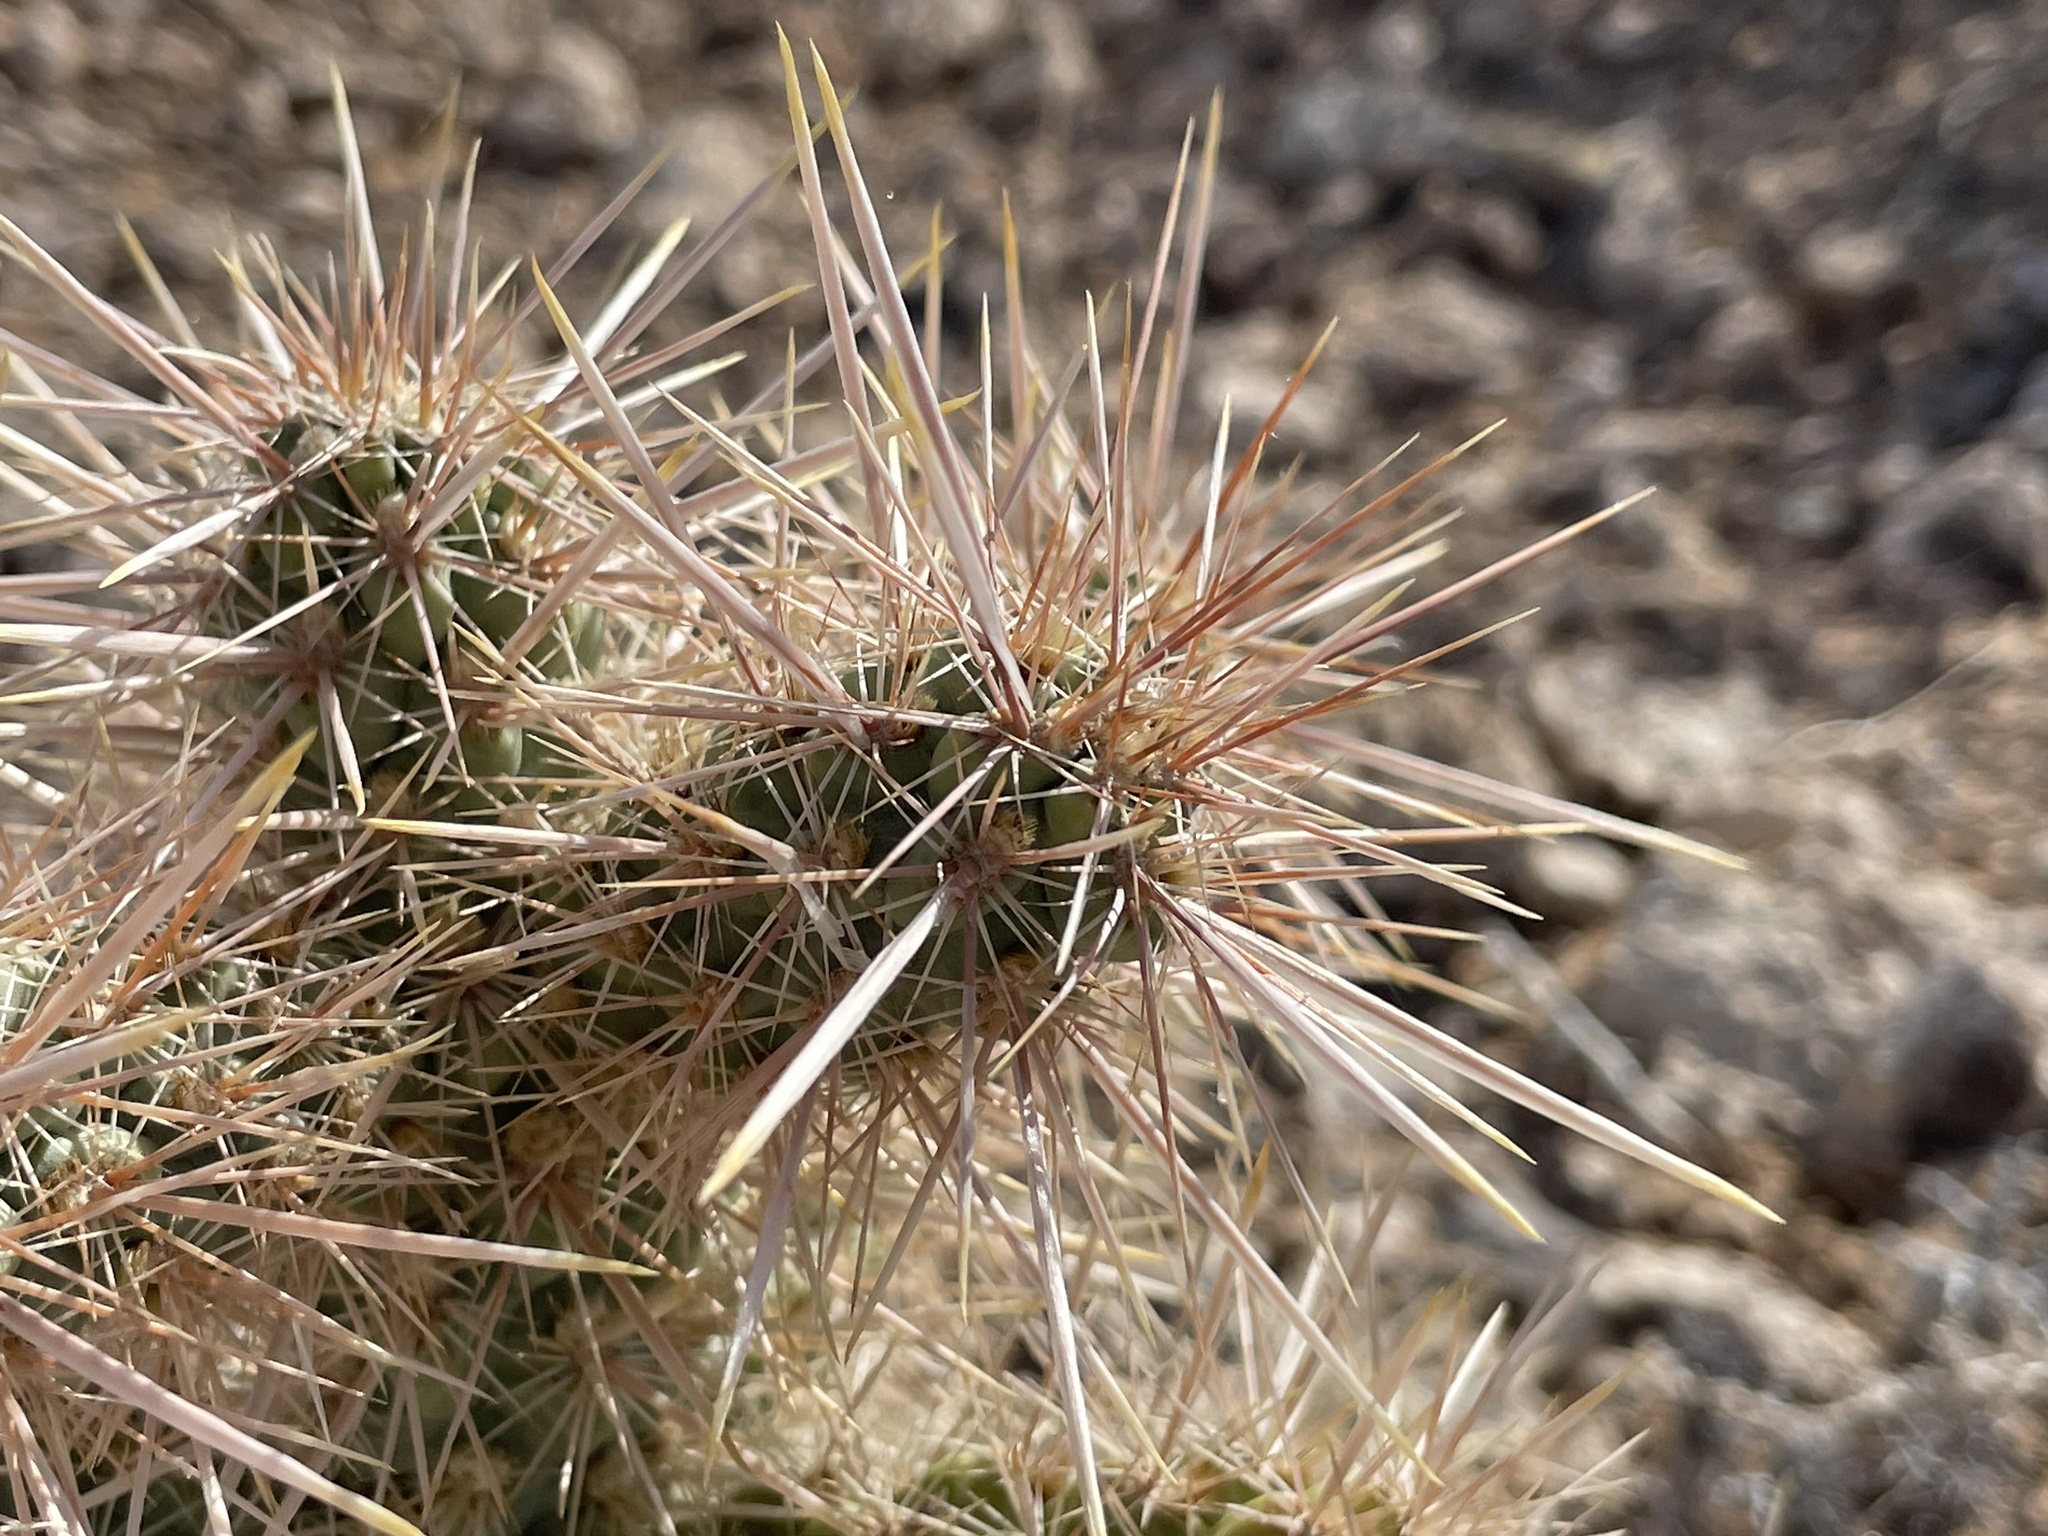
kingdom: Plantae
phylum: Tracheophyta
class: Magnoliopsida
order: Caryophyllales
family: Cactaceae
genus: Cylindropuntia
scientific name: Cylindropuntia echinocarpa
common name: Ground cholla
